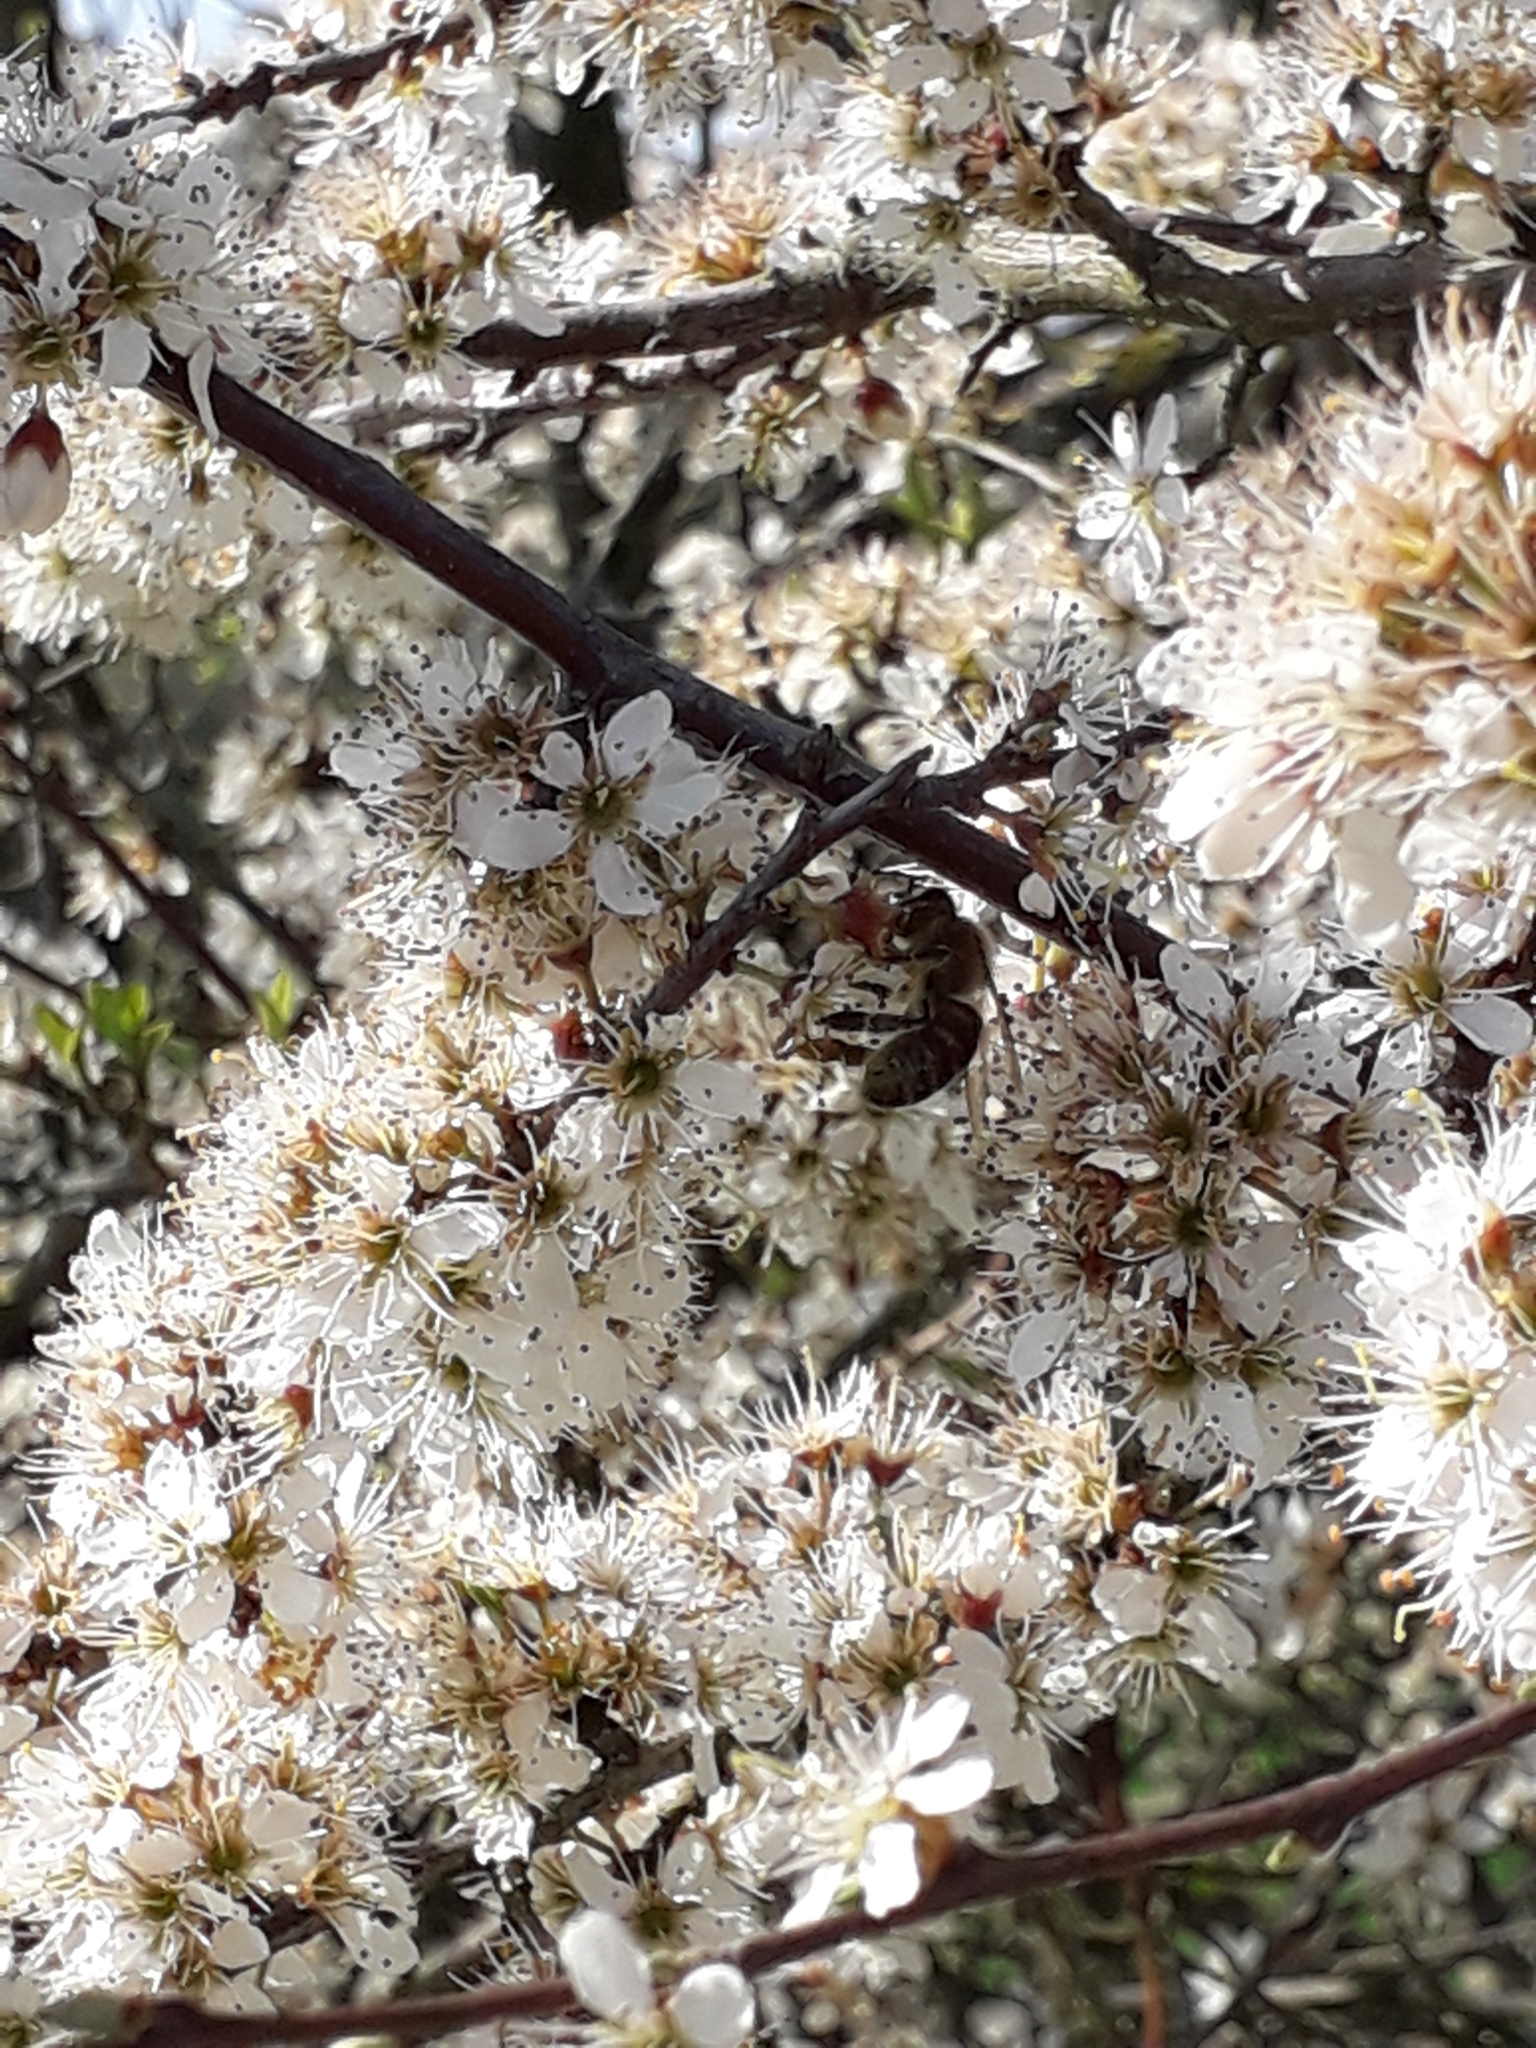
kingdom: Animalia
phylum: Arthropoda
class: Insecta
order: Hymenoptera
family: Apidae
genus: Apis
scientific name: Apis mellifera
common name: Honey bee
